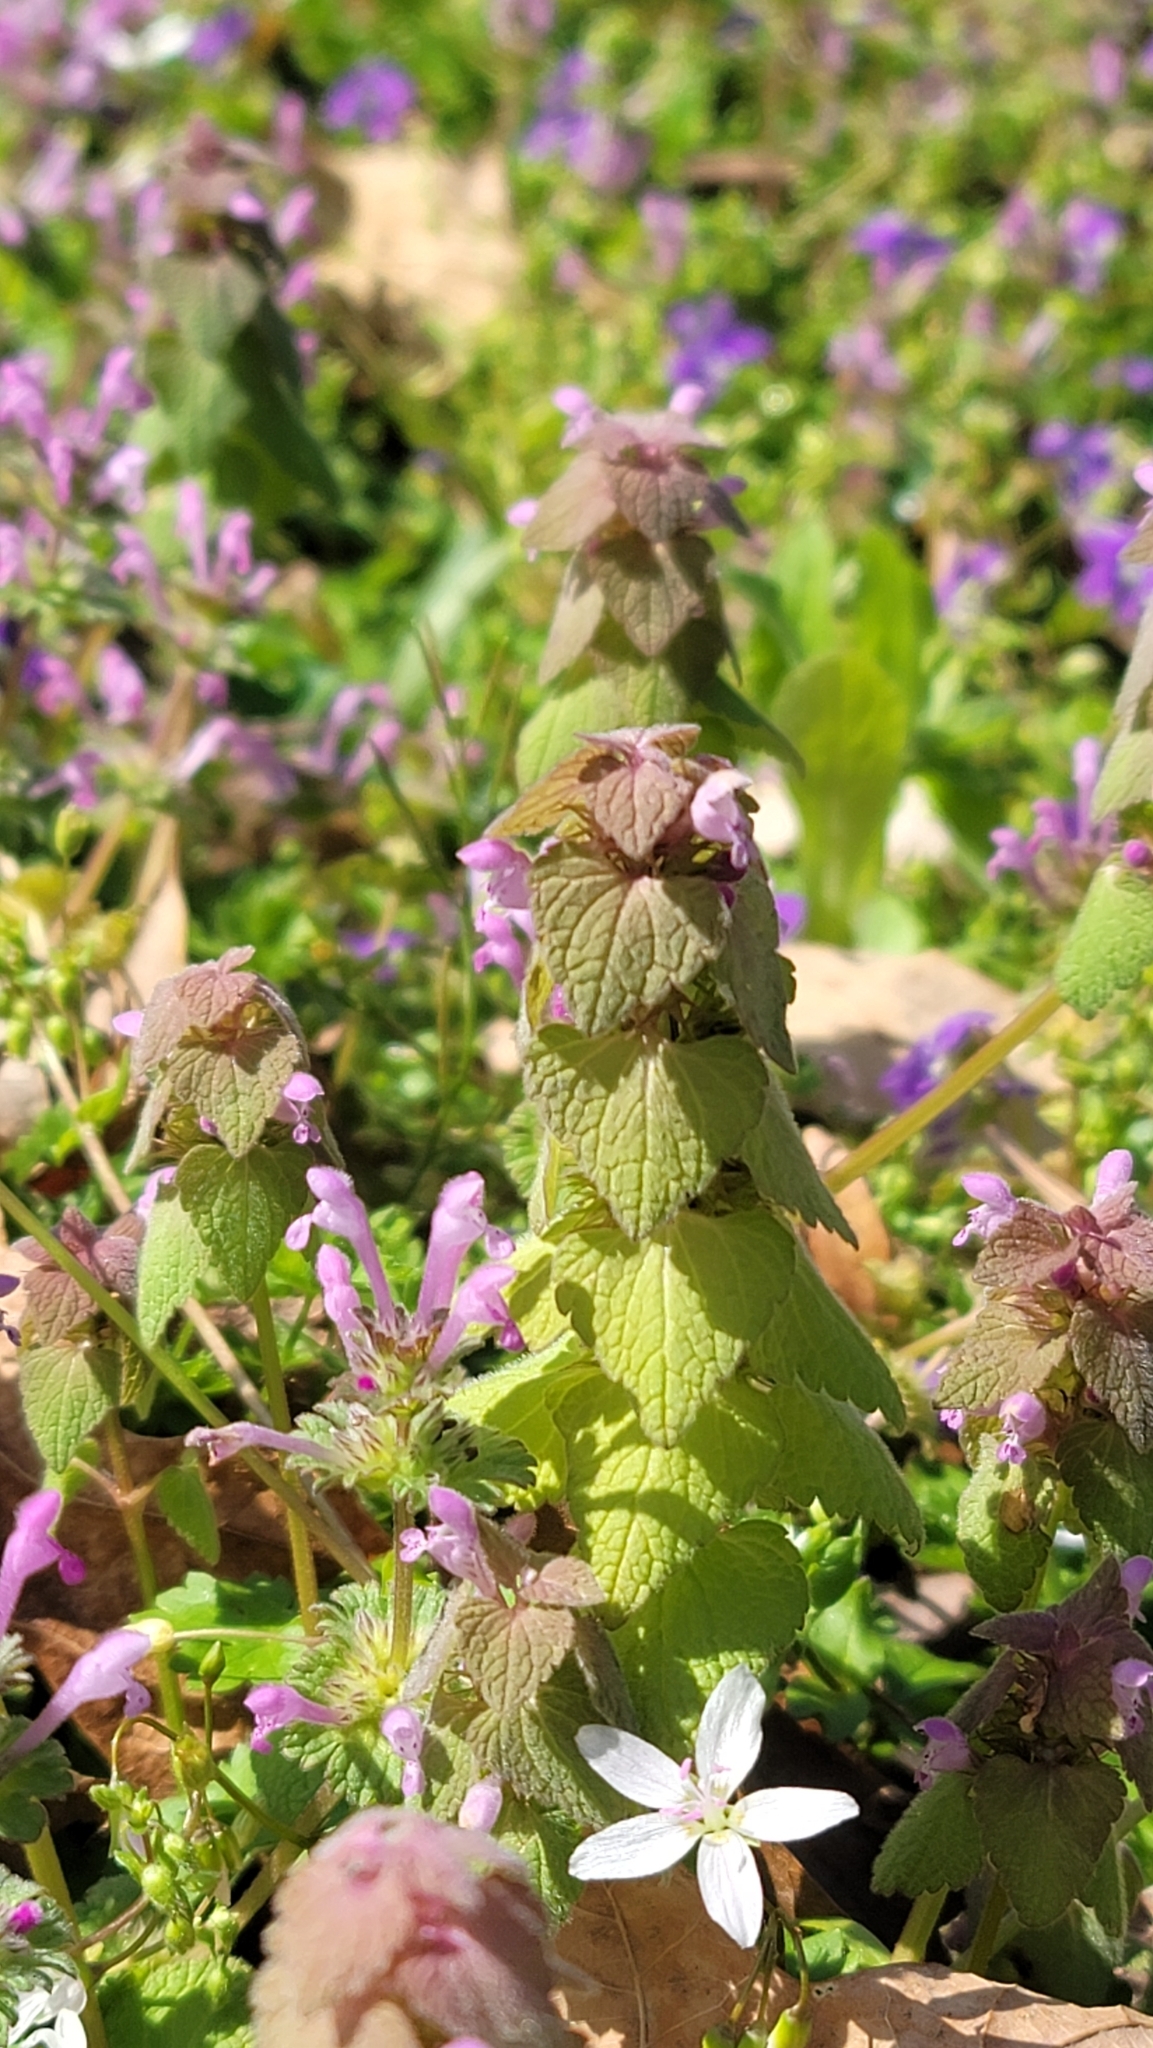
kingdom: Plantae
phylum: Tracheophyta
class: Magnoliopsida
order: Lamiales
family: Lamiaceae
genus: Lamium
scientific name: Lamium purpureum
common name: Red dead-nettle
